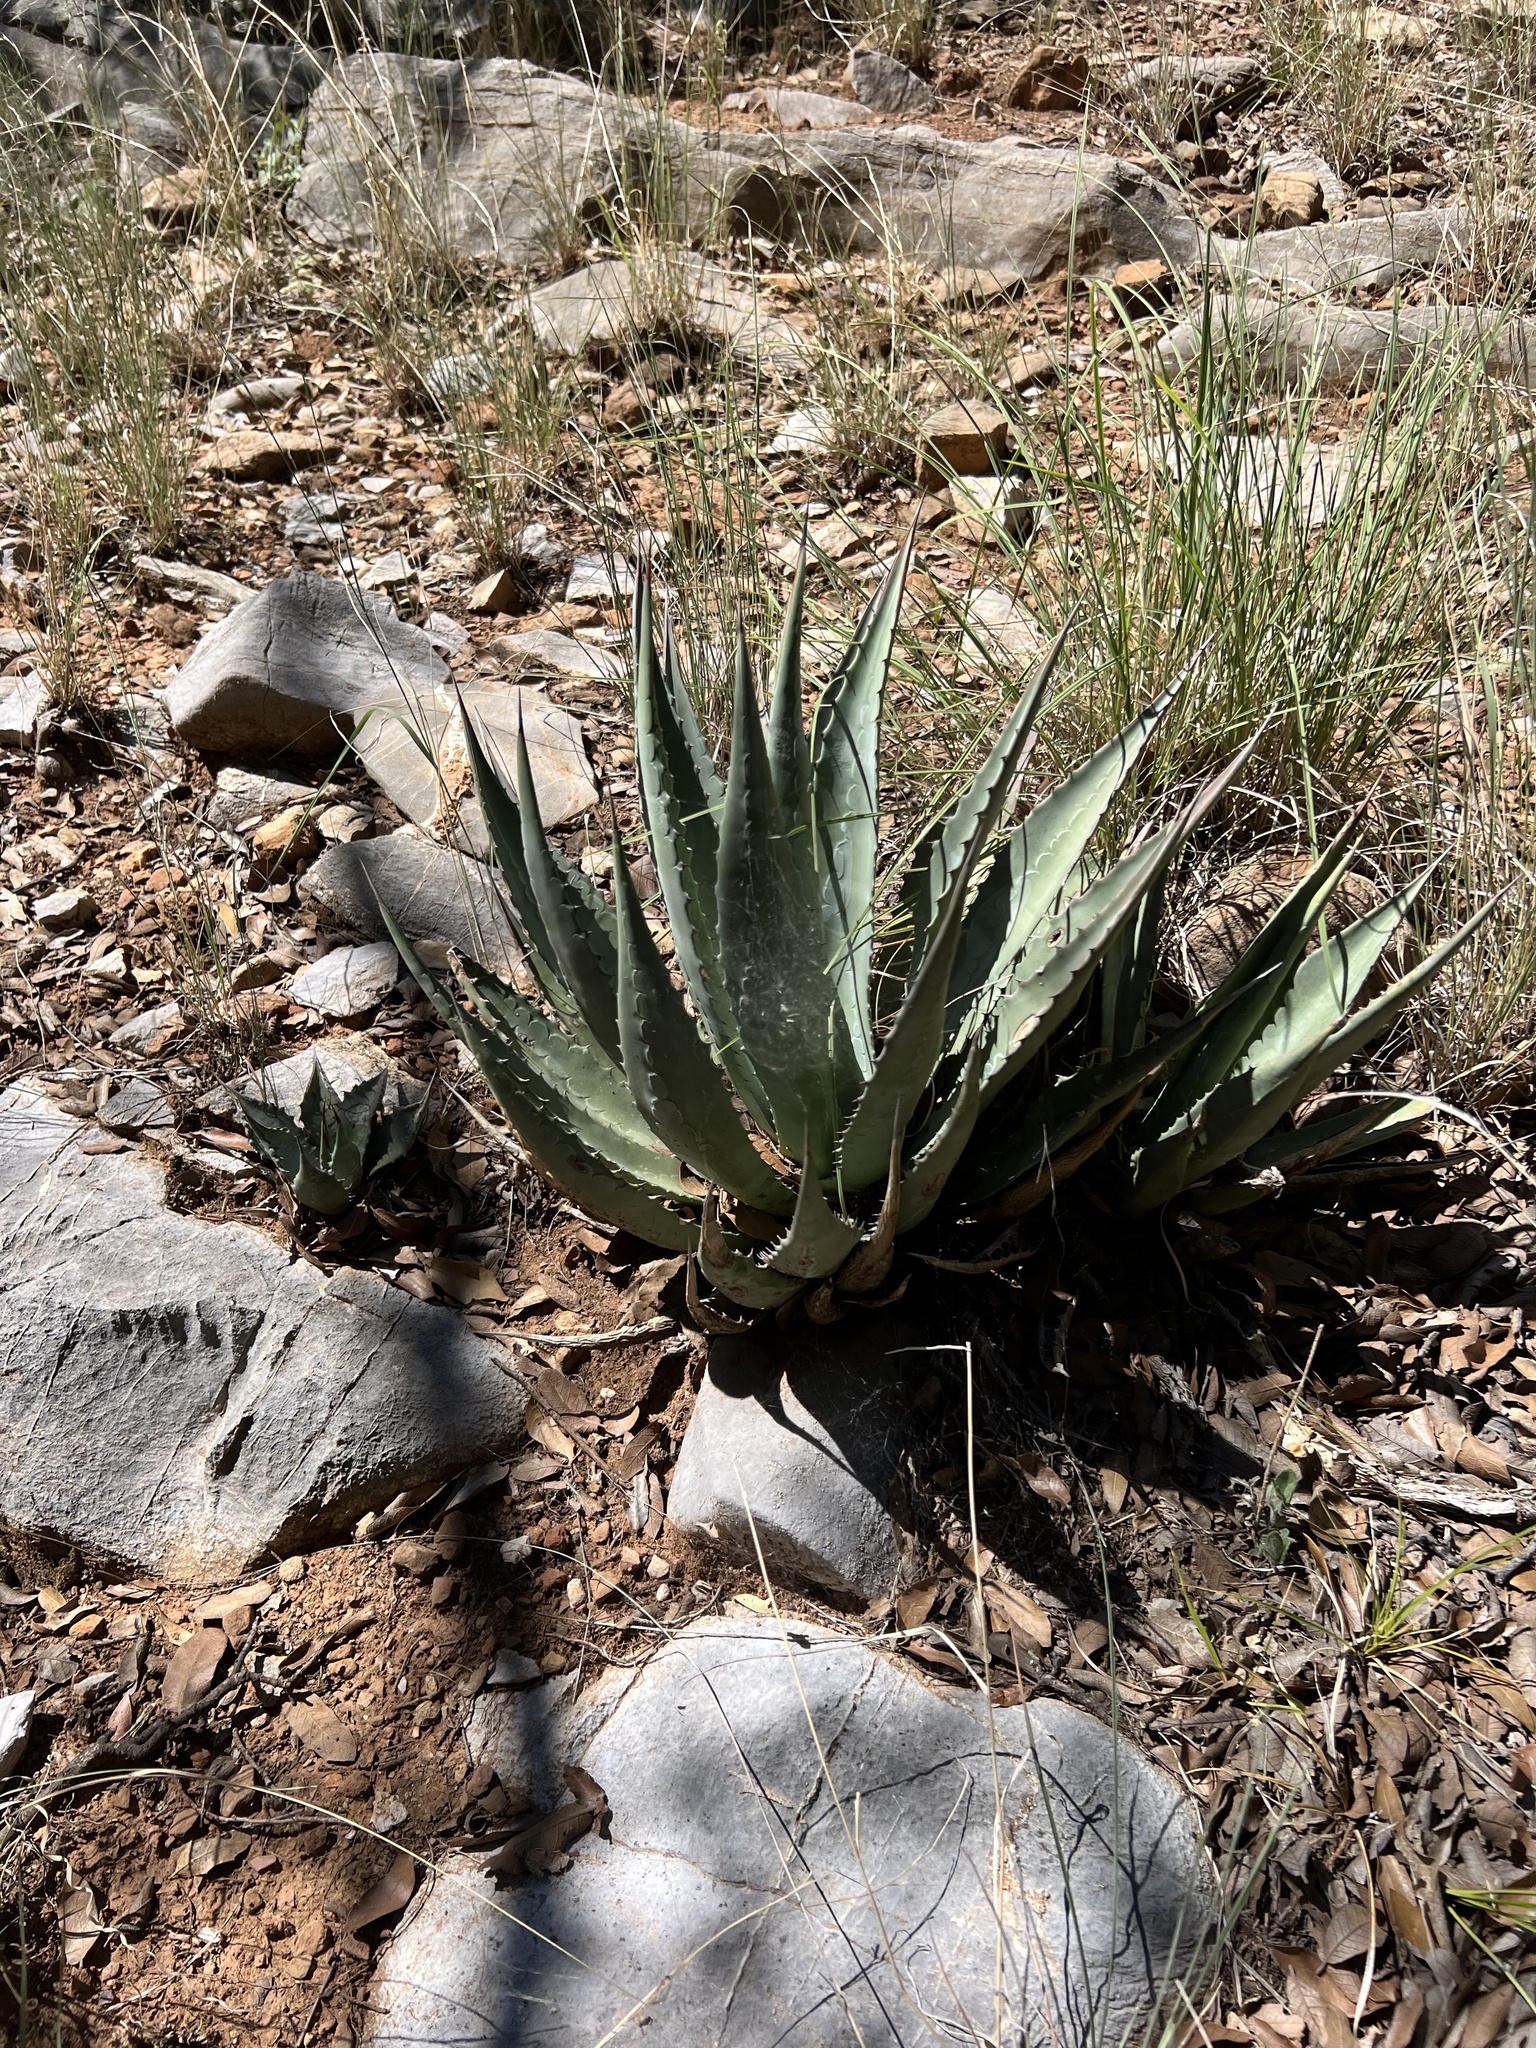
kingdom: Plantae
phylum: Tracheophyta
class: Liliopsida
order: Asparagales
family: Asparagaceae
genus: Agave
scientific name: Agave palmeri
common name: Palmer agave
